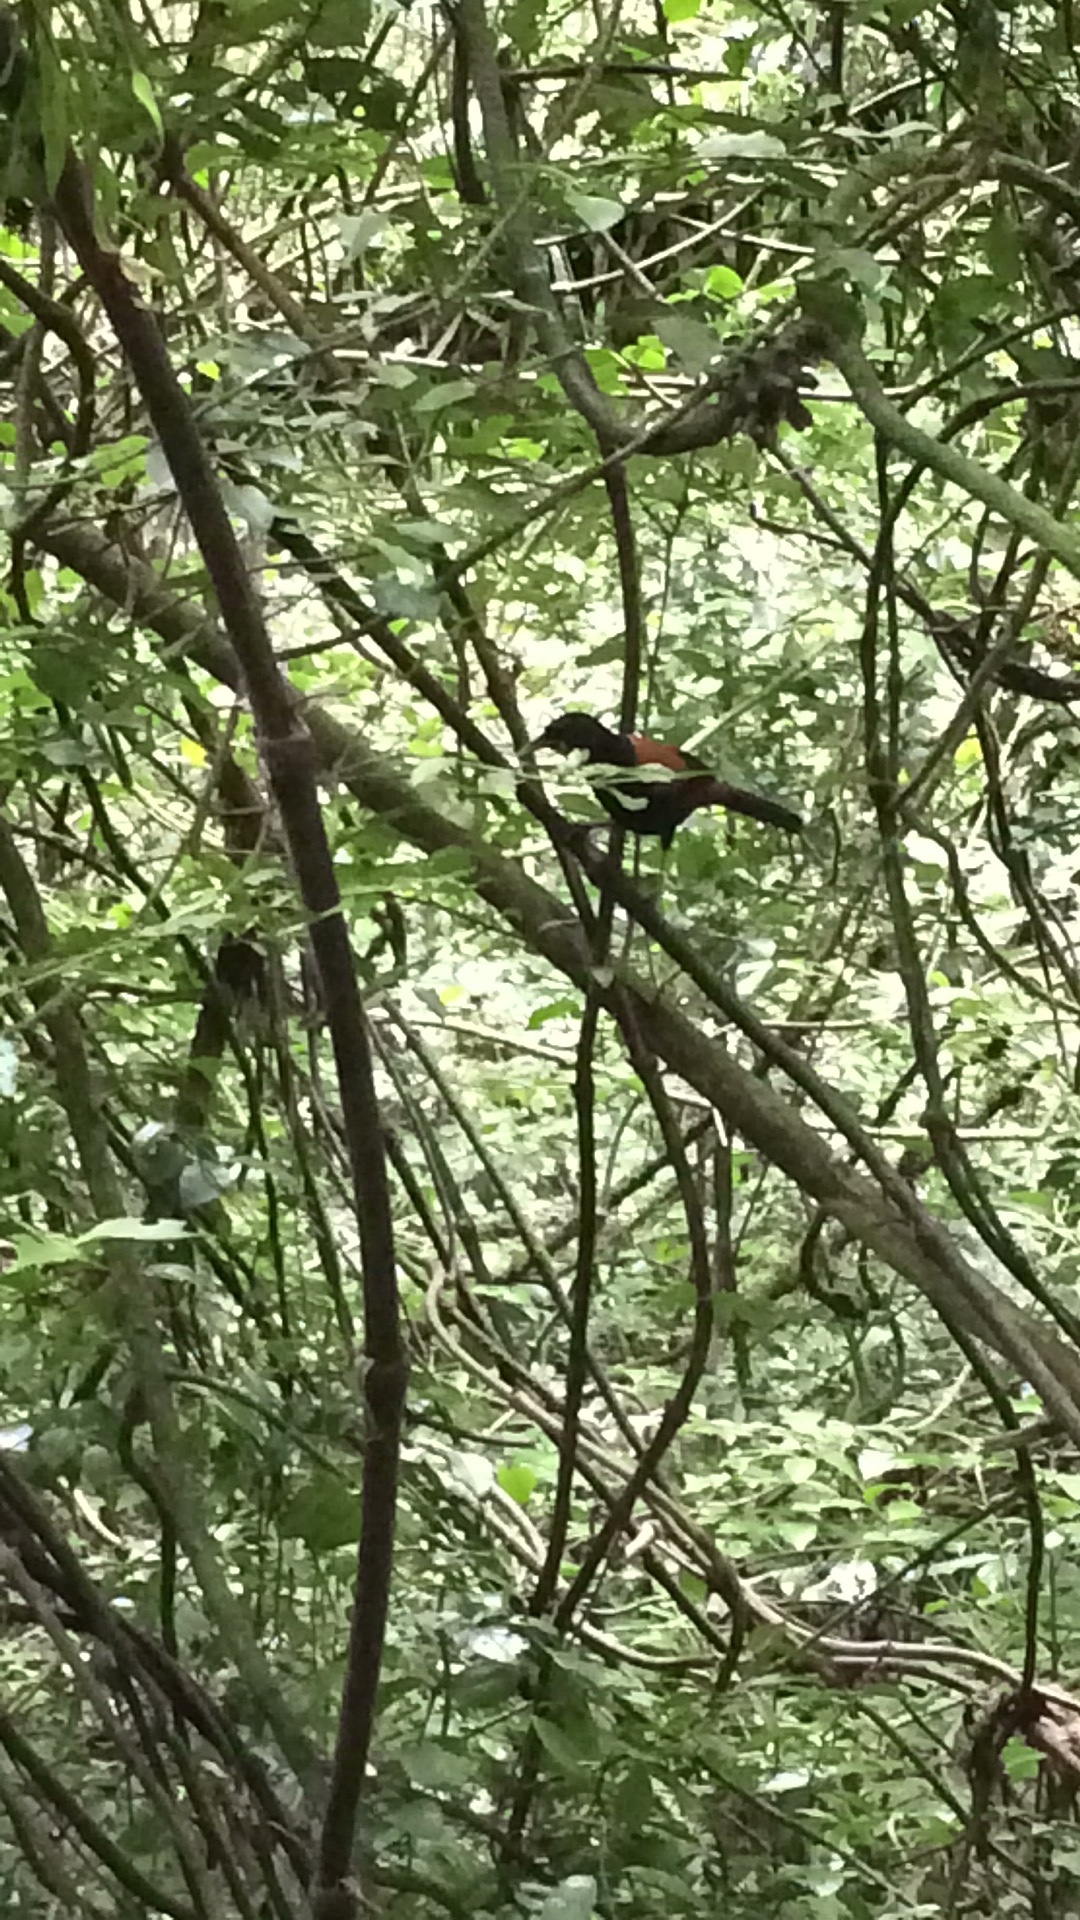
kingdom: Animalia
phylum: Chordata
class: Aves
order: Passeriformes
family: Callaeatidae
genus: Philesturnus
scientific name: Philesturnus carunculatus
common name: South island saddleback
